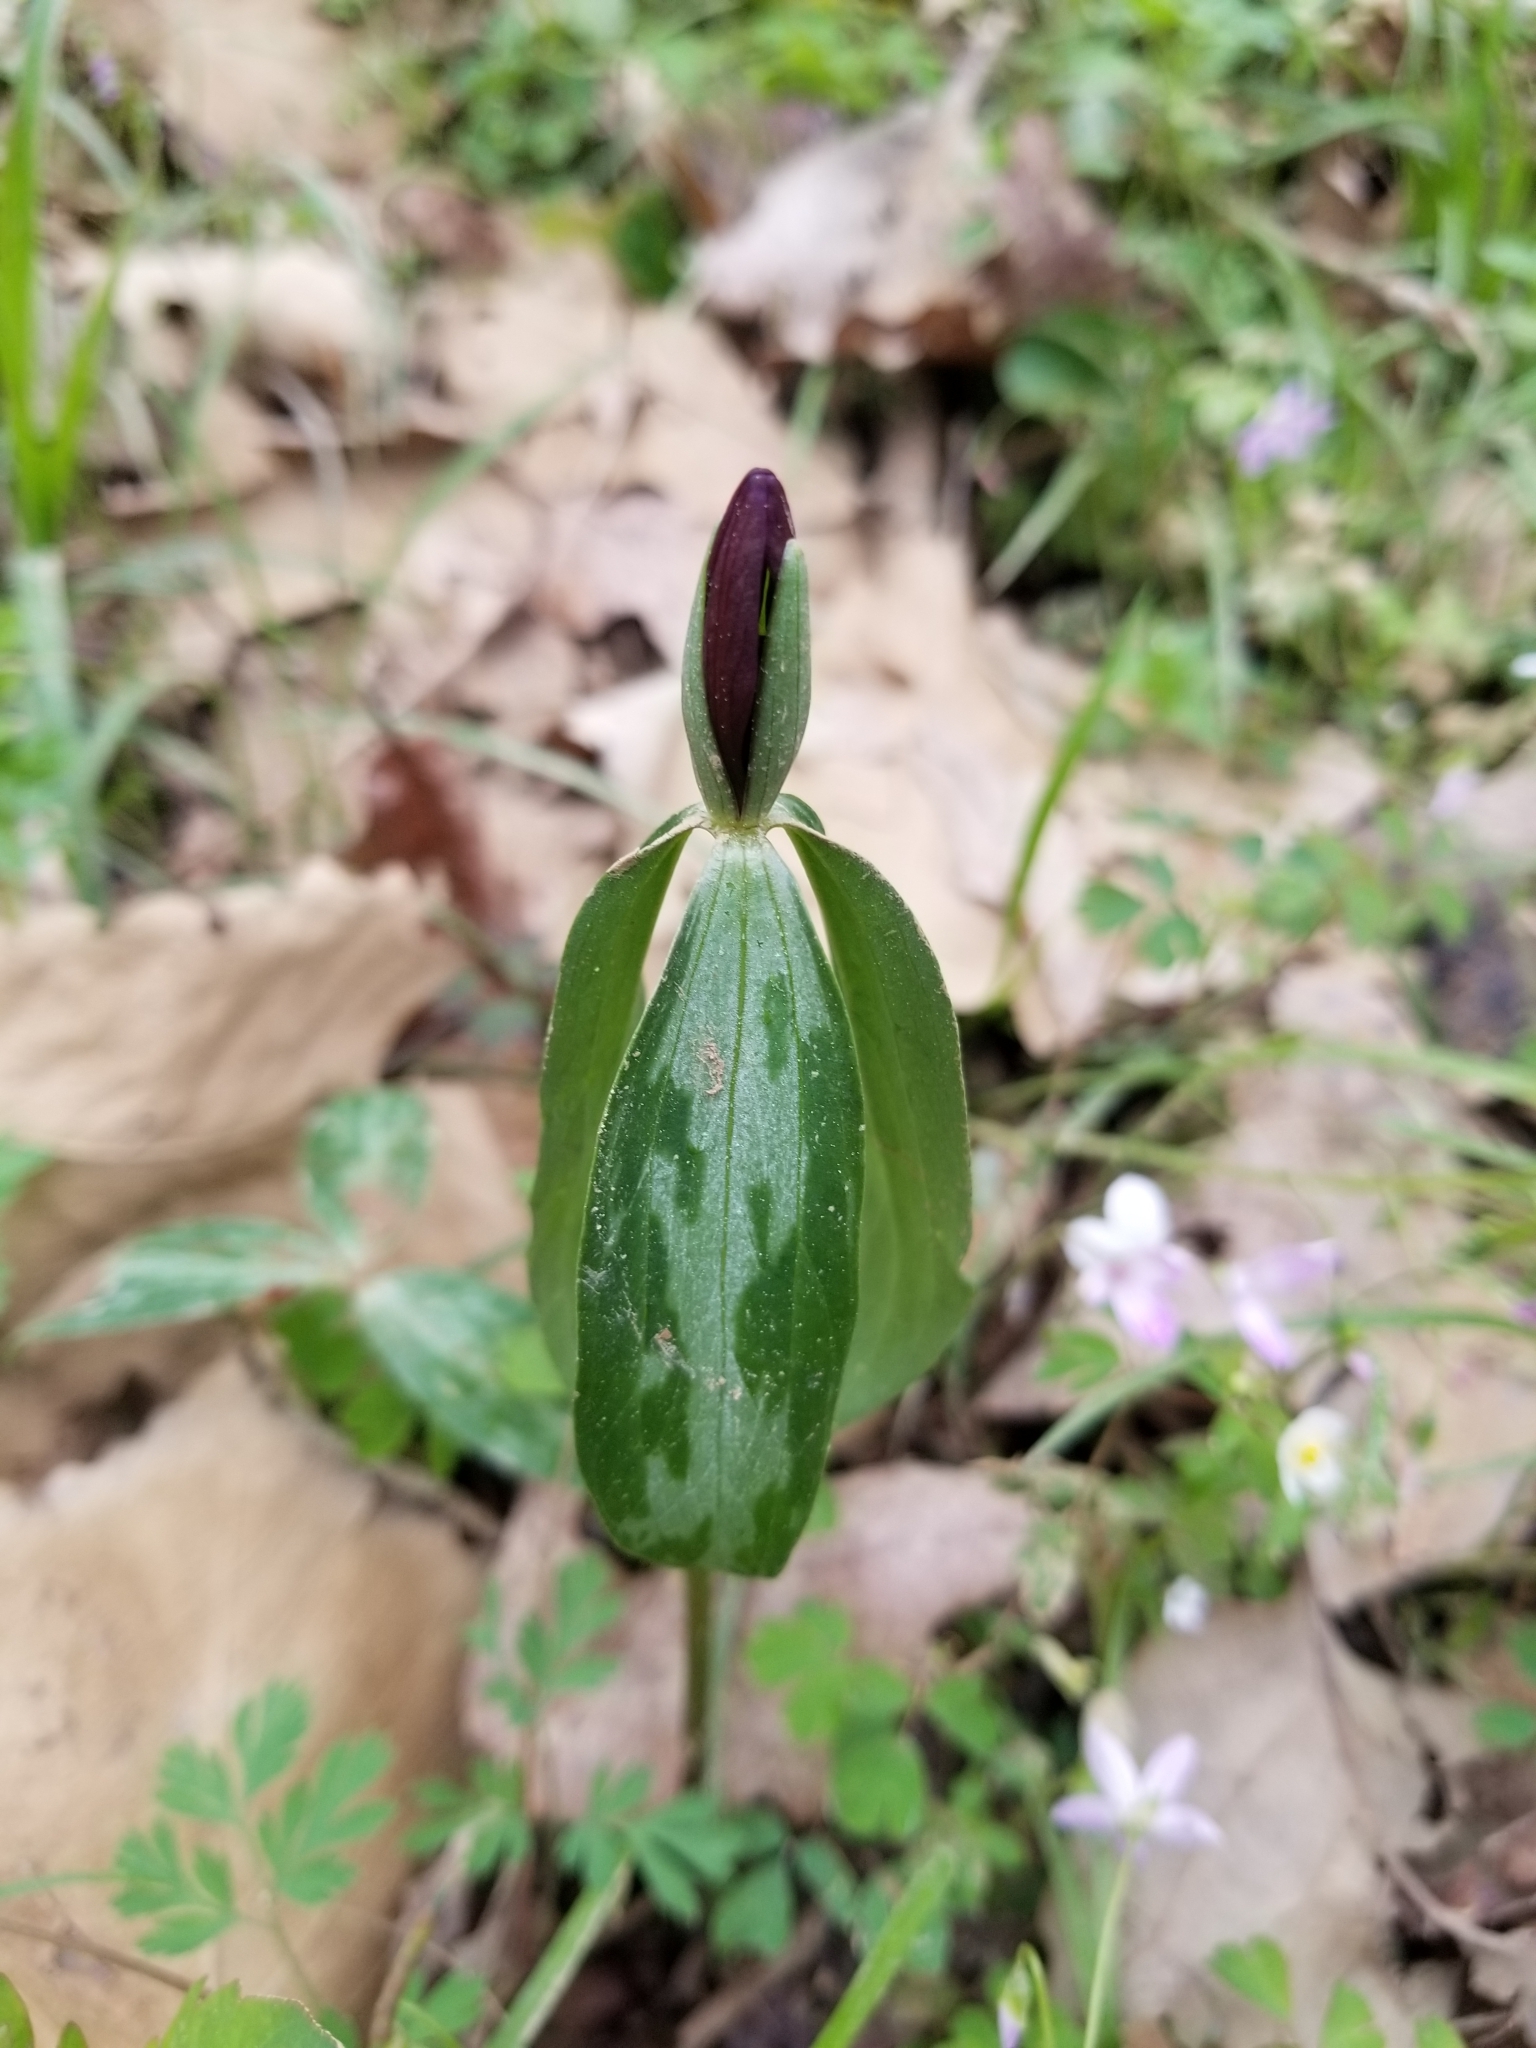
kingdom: Plantae
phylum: Tracheophyta
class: Liliopsida
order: Liliales
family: Melanthiaceae
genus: Trillium
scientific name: Trillium lancifolium
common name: Lance-leaved trillium
